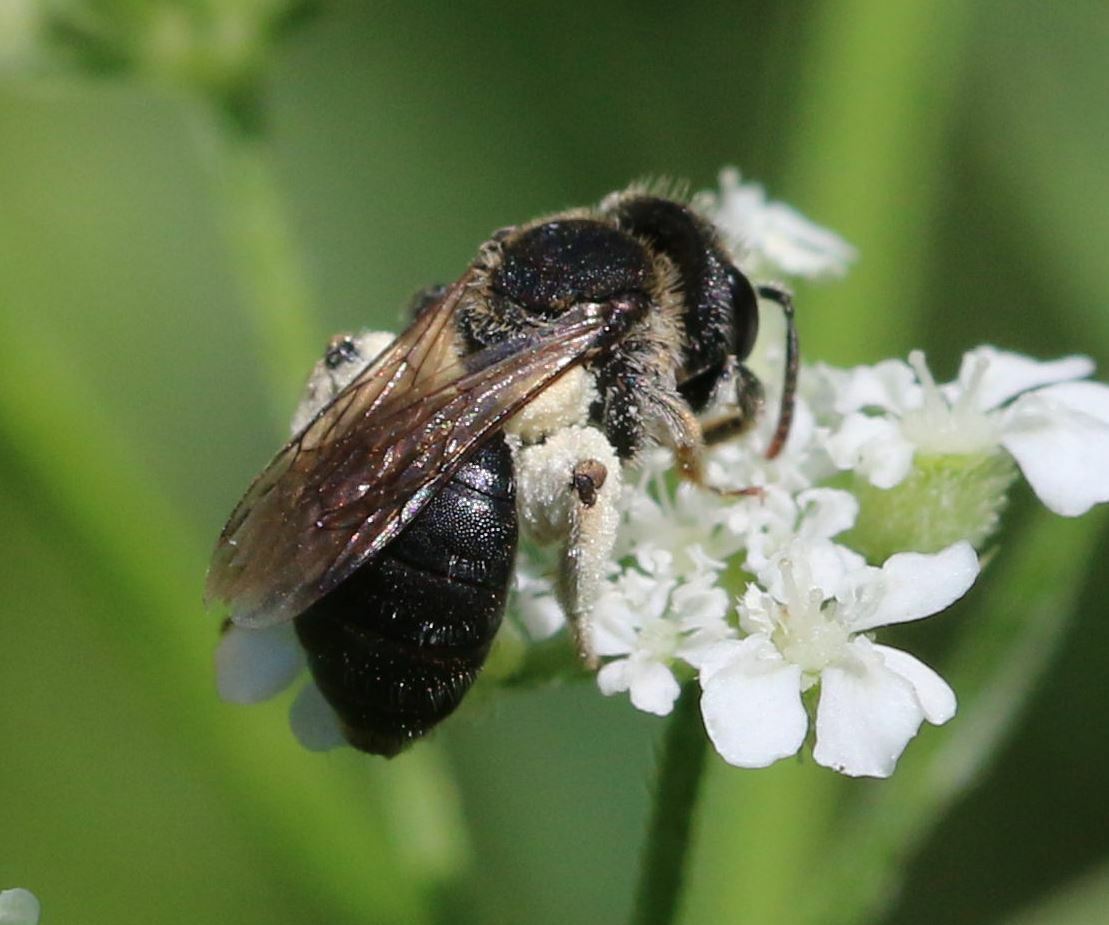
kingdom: Animalia
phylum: Arthropoda
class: Insecta
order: Hymenoptera
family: Andrenidae
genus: Andrena
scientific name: Andrena colletiformis
